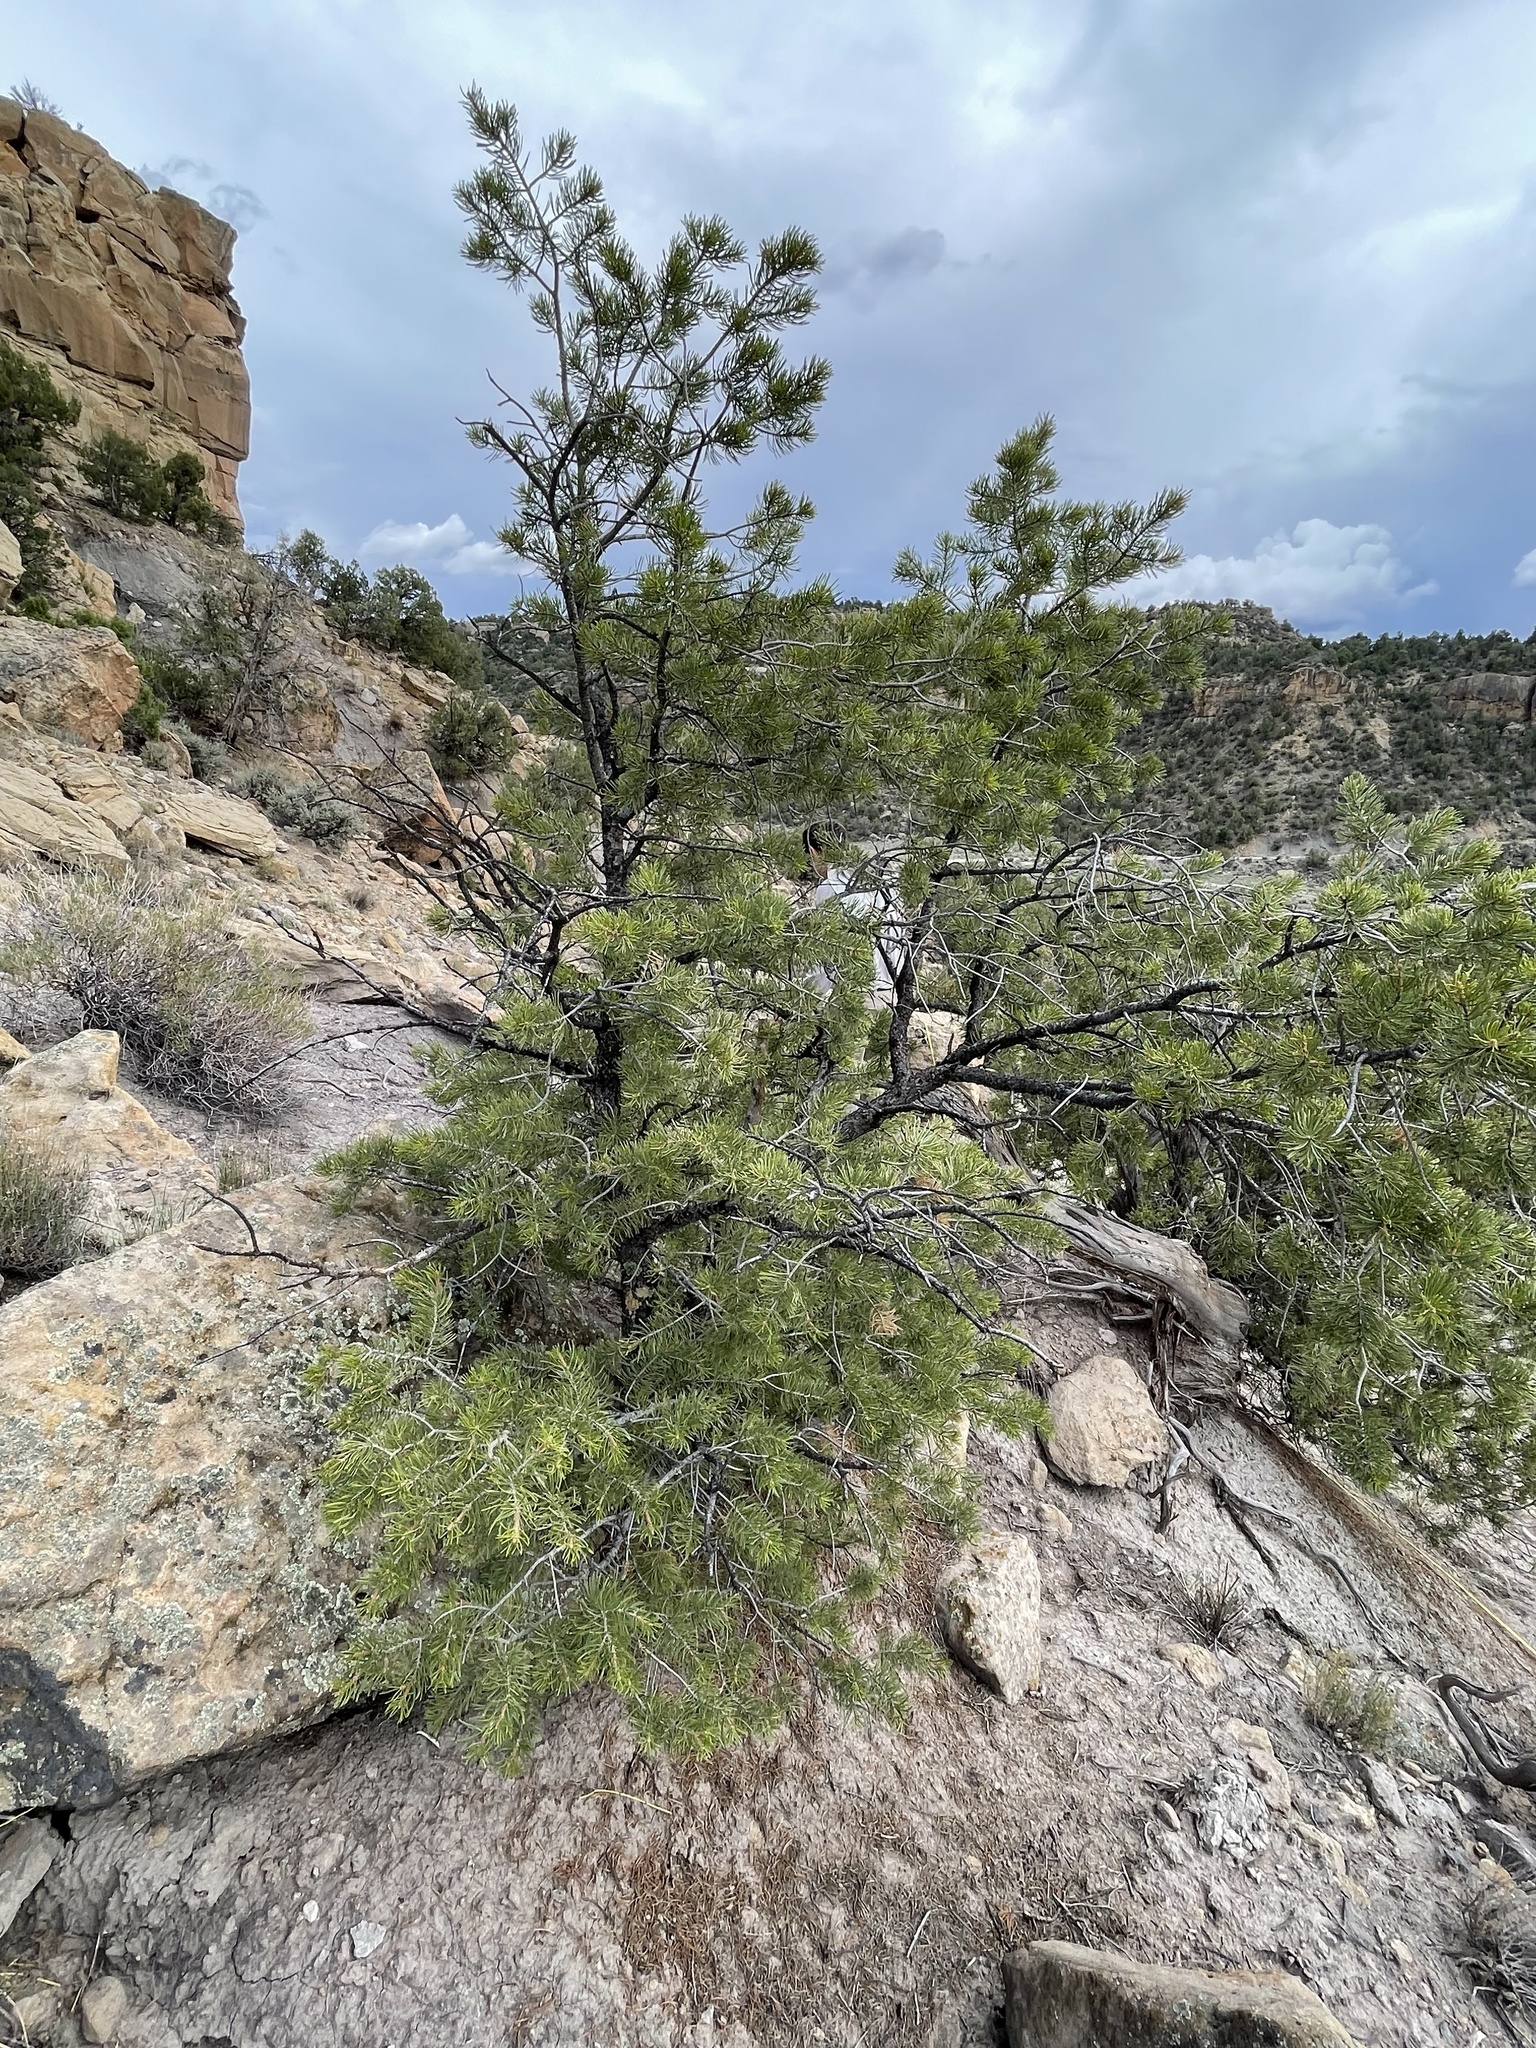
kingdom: Plantae
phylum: Tracheophyta
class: Pinopsida
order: Pinales
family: Pinaceae
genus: Pinus
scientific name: Pinus edulis
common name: Colorado pinyon
